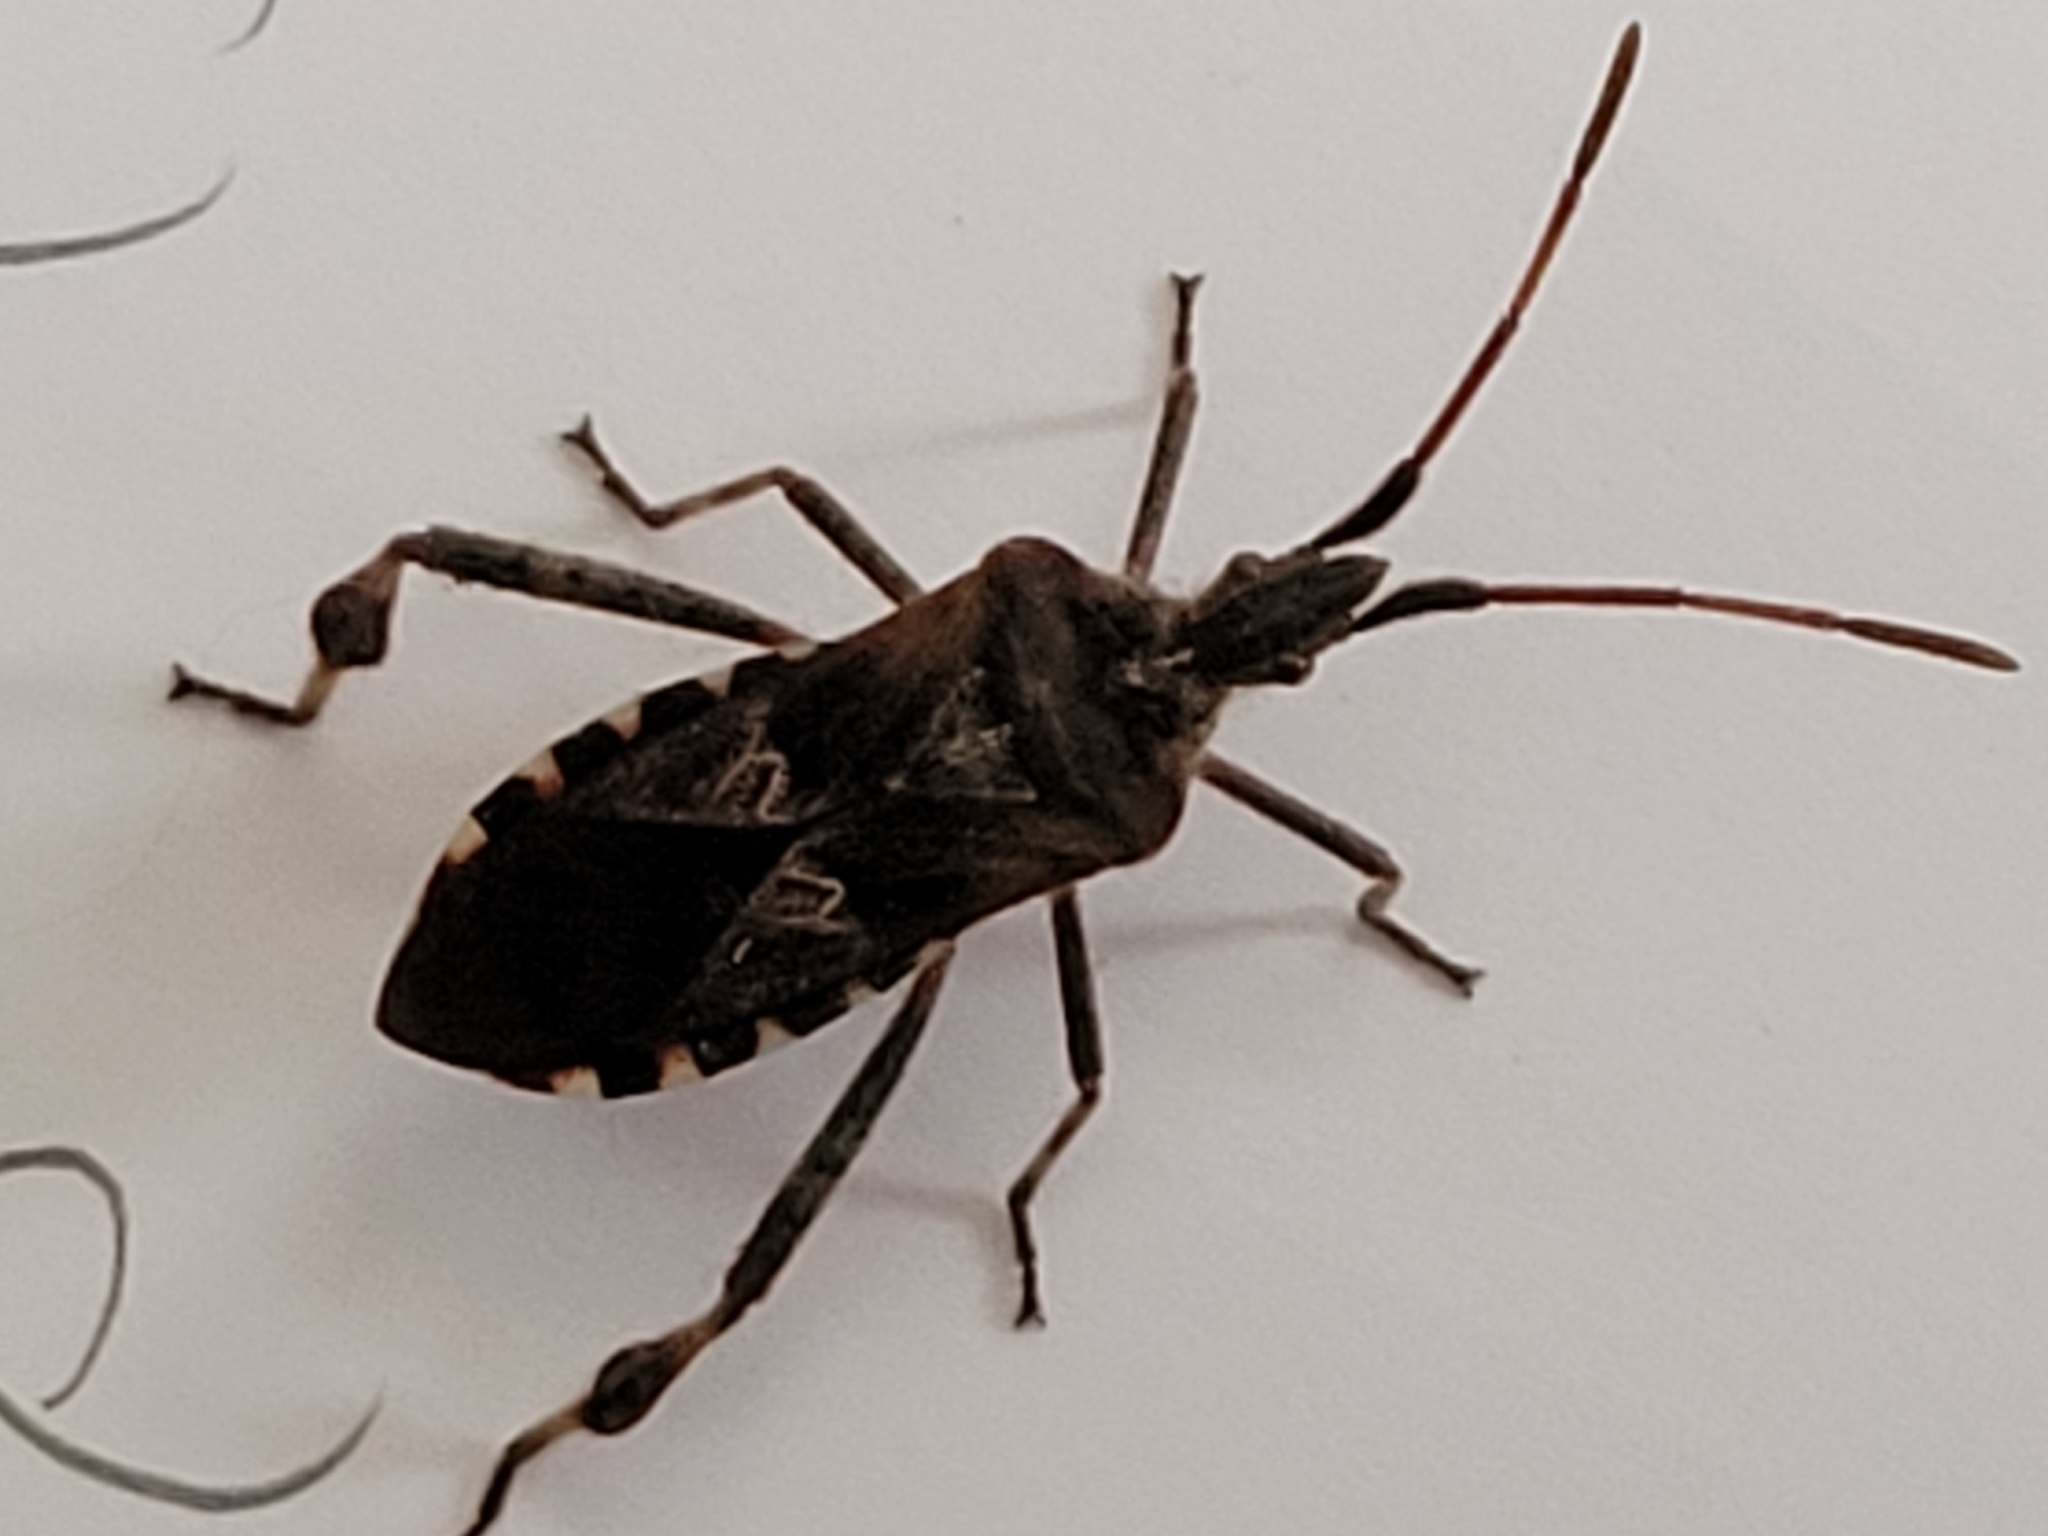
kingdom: Animalia
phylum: Arthropoda
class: Insecta
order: Hemiptera
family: Coreidae
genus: Leptoglossus
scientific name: Leptoglossus occidentalis
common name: Western conifer-seed bug
